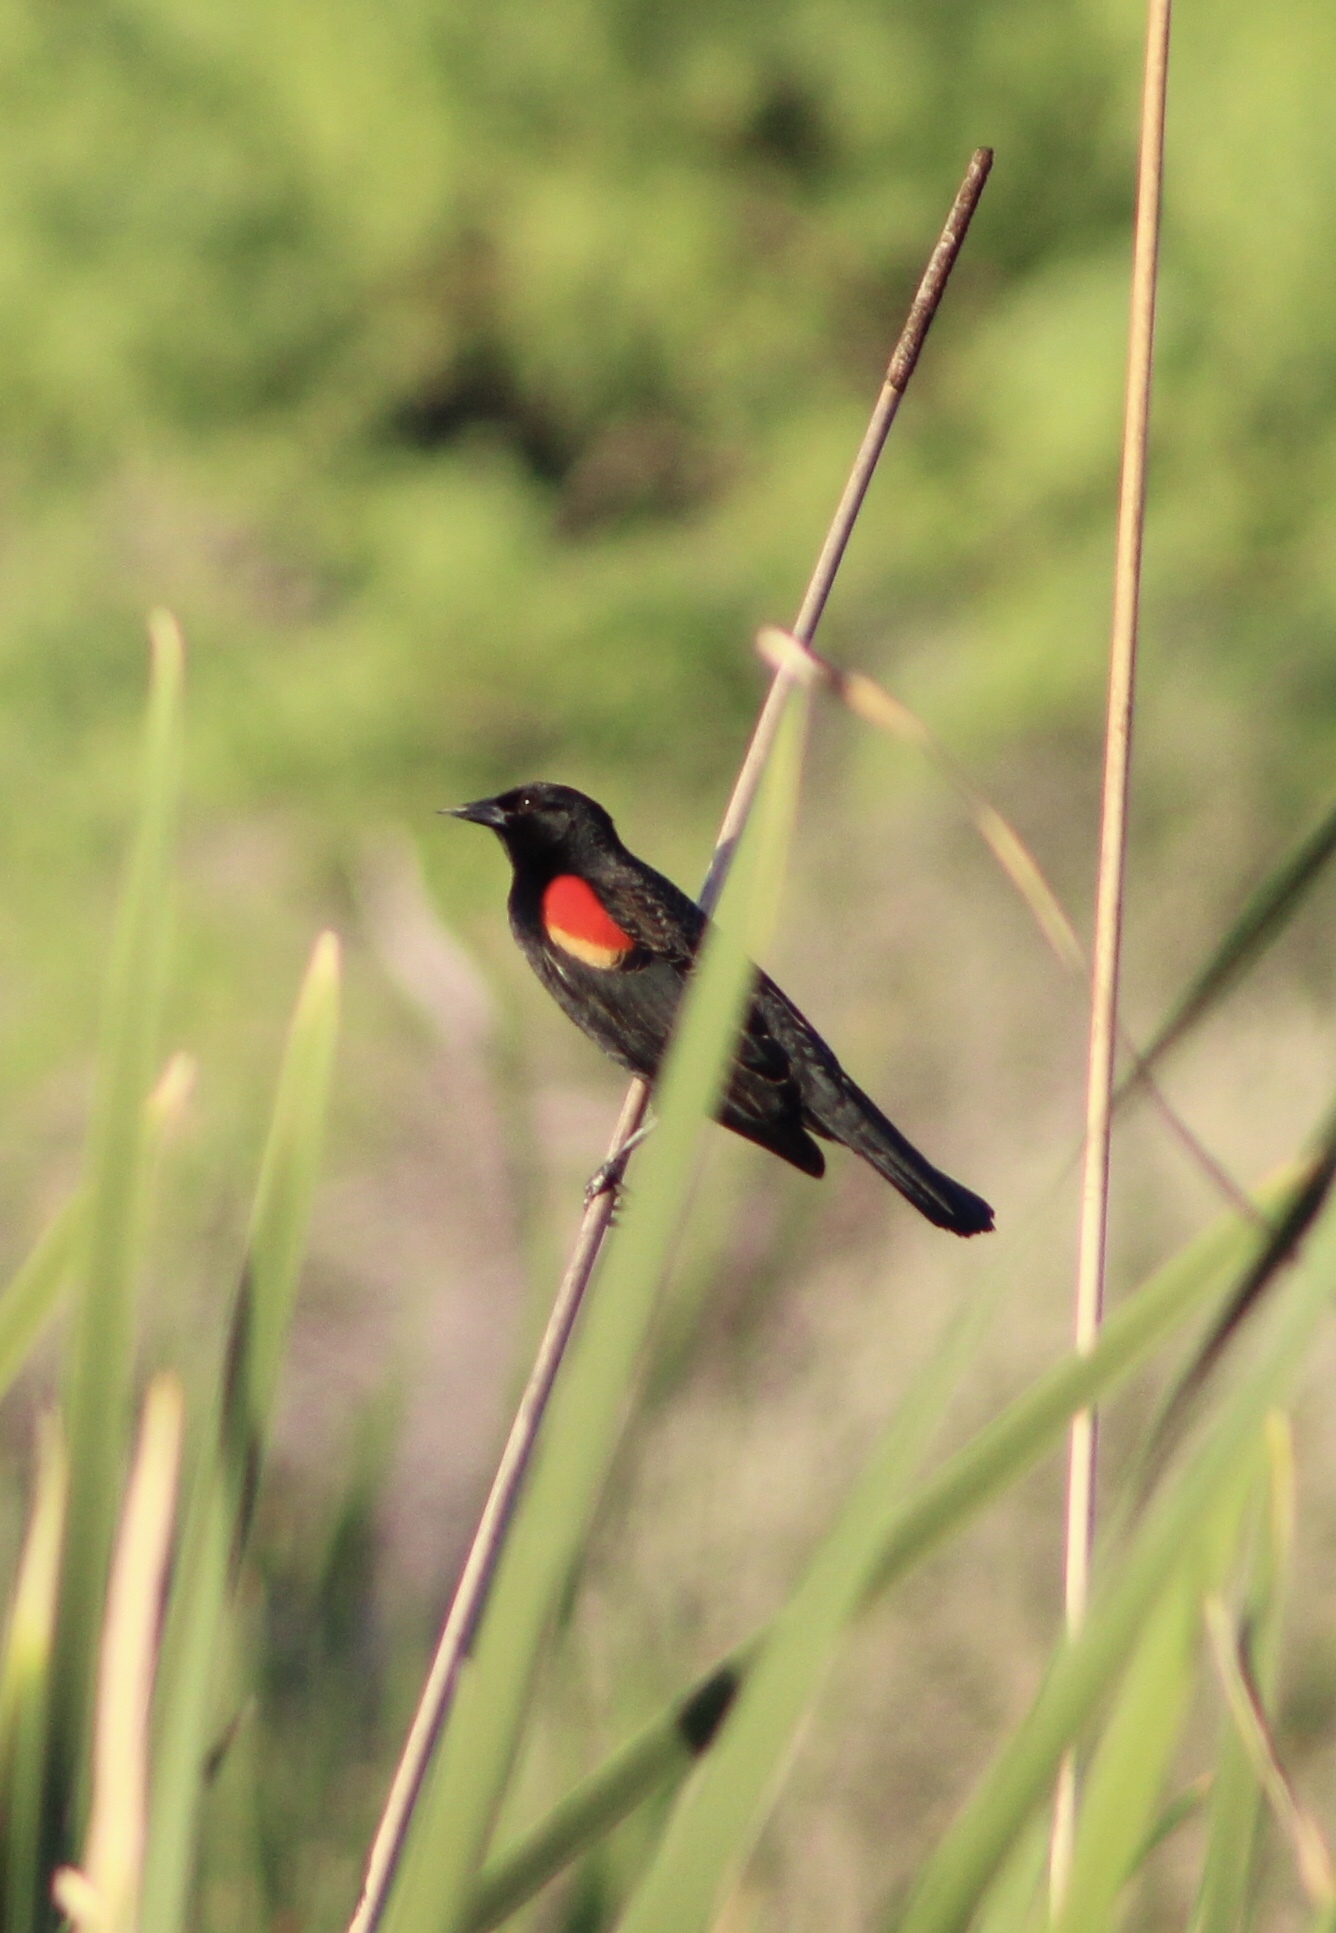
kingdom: Animalia
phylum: Chordata
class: Aves
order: Passeriformes
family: Icteridae
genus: Agelaius
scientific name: Agelaius phoeniceus
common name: Red-winged blackbird
